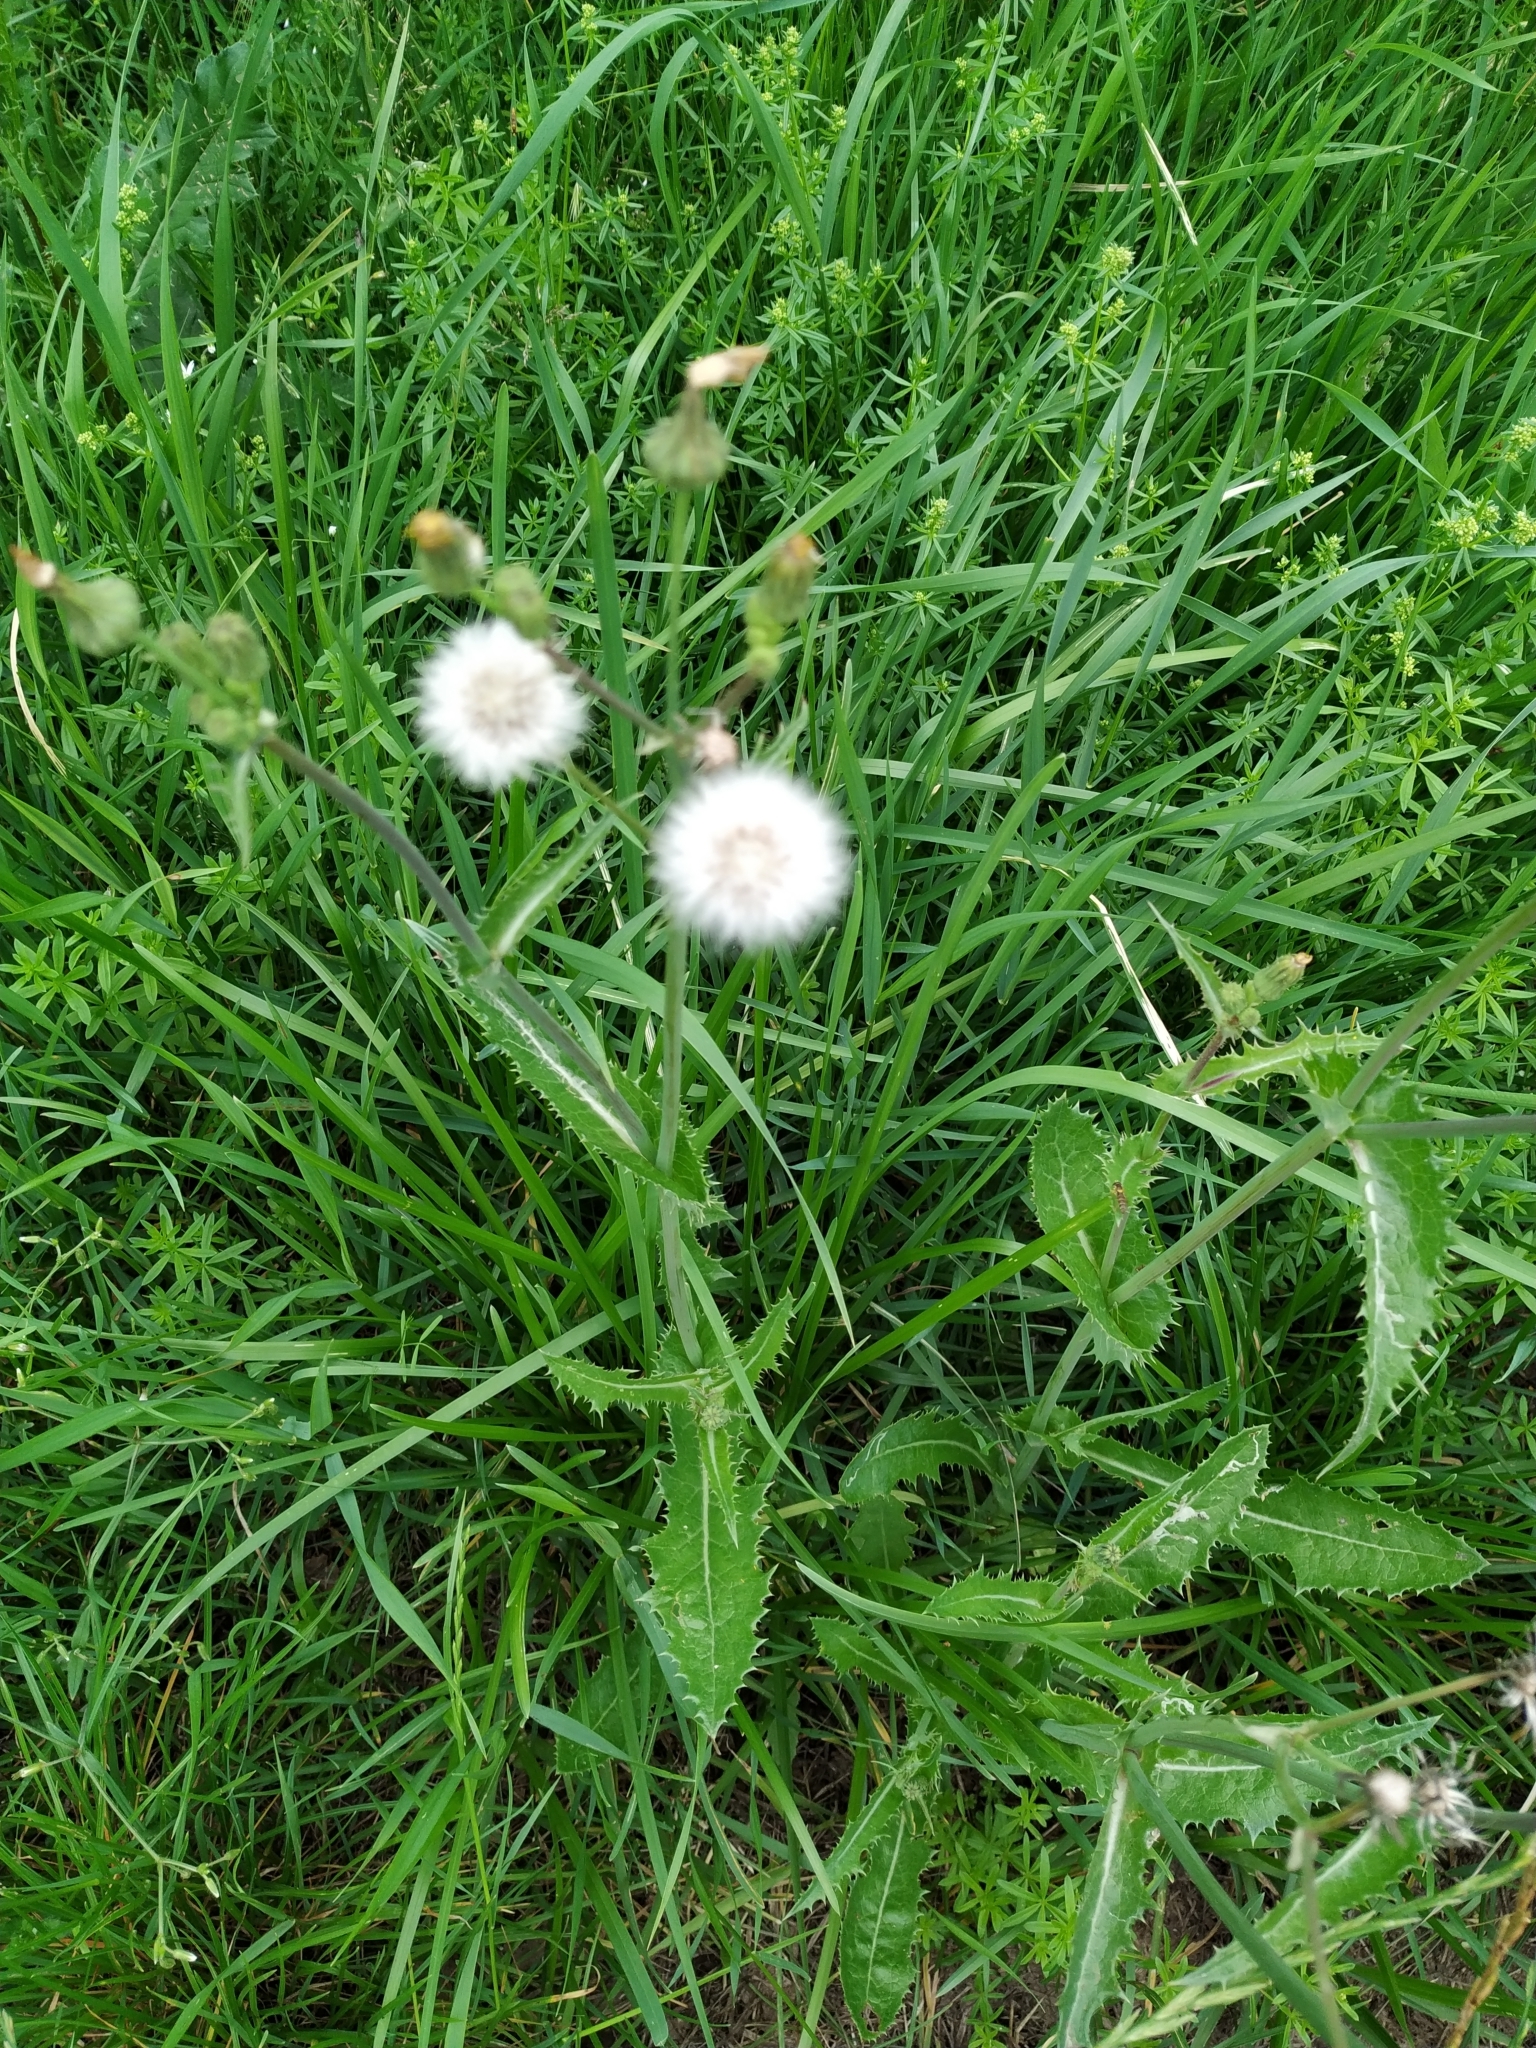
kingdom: Plantae
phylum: Tracheophyta
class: Magnoliopsida
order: Asterales
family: Asteraceae
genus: Sonchus
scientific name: Sonchus asper
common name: Prickly sow-thistle
